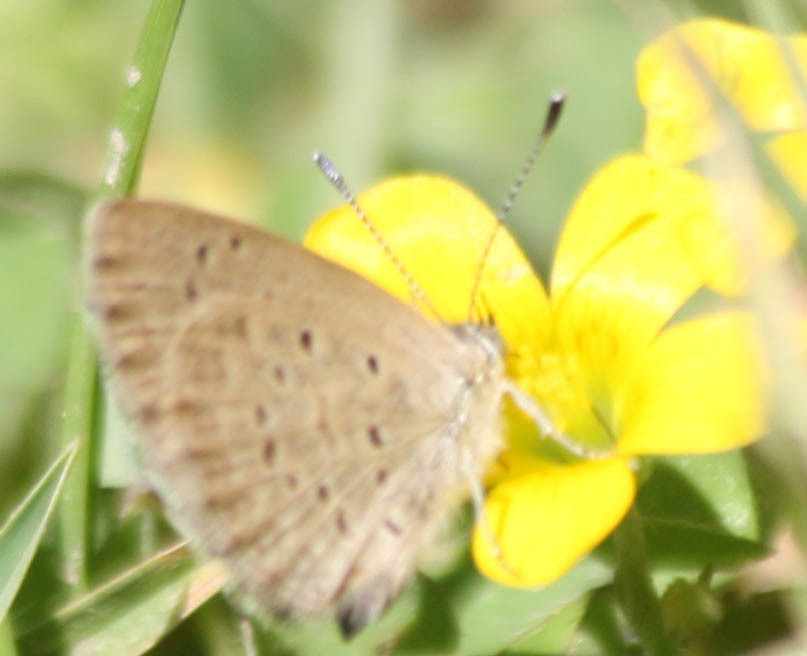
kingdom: Animalia
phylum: Arthropoda
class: Insecta
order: Lepidoptera
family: Lycaenidae
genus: Zizeeria
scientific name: Zizeeria knysna
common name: African grass blue
